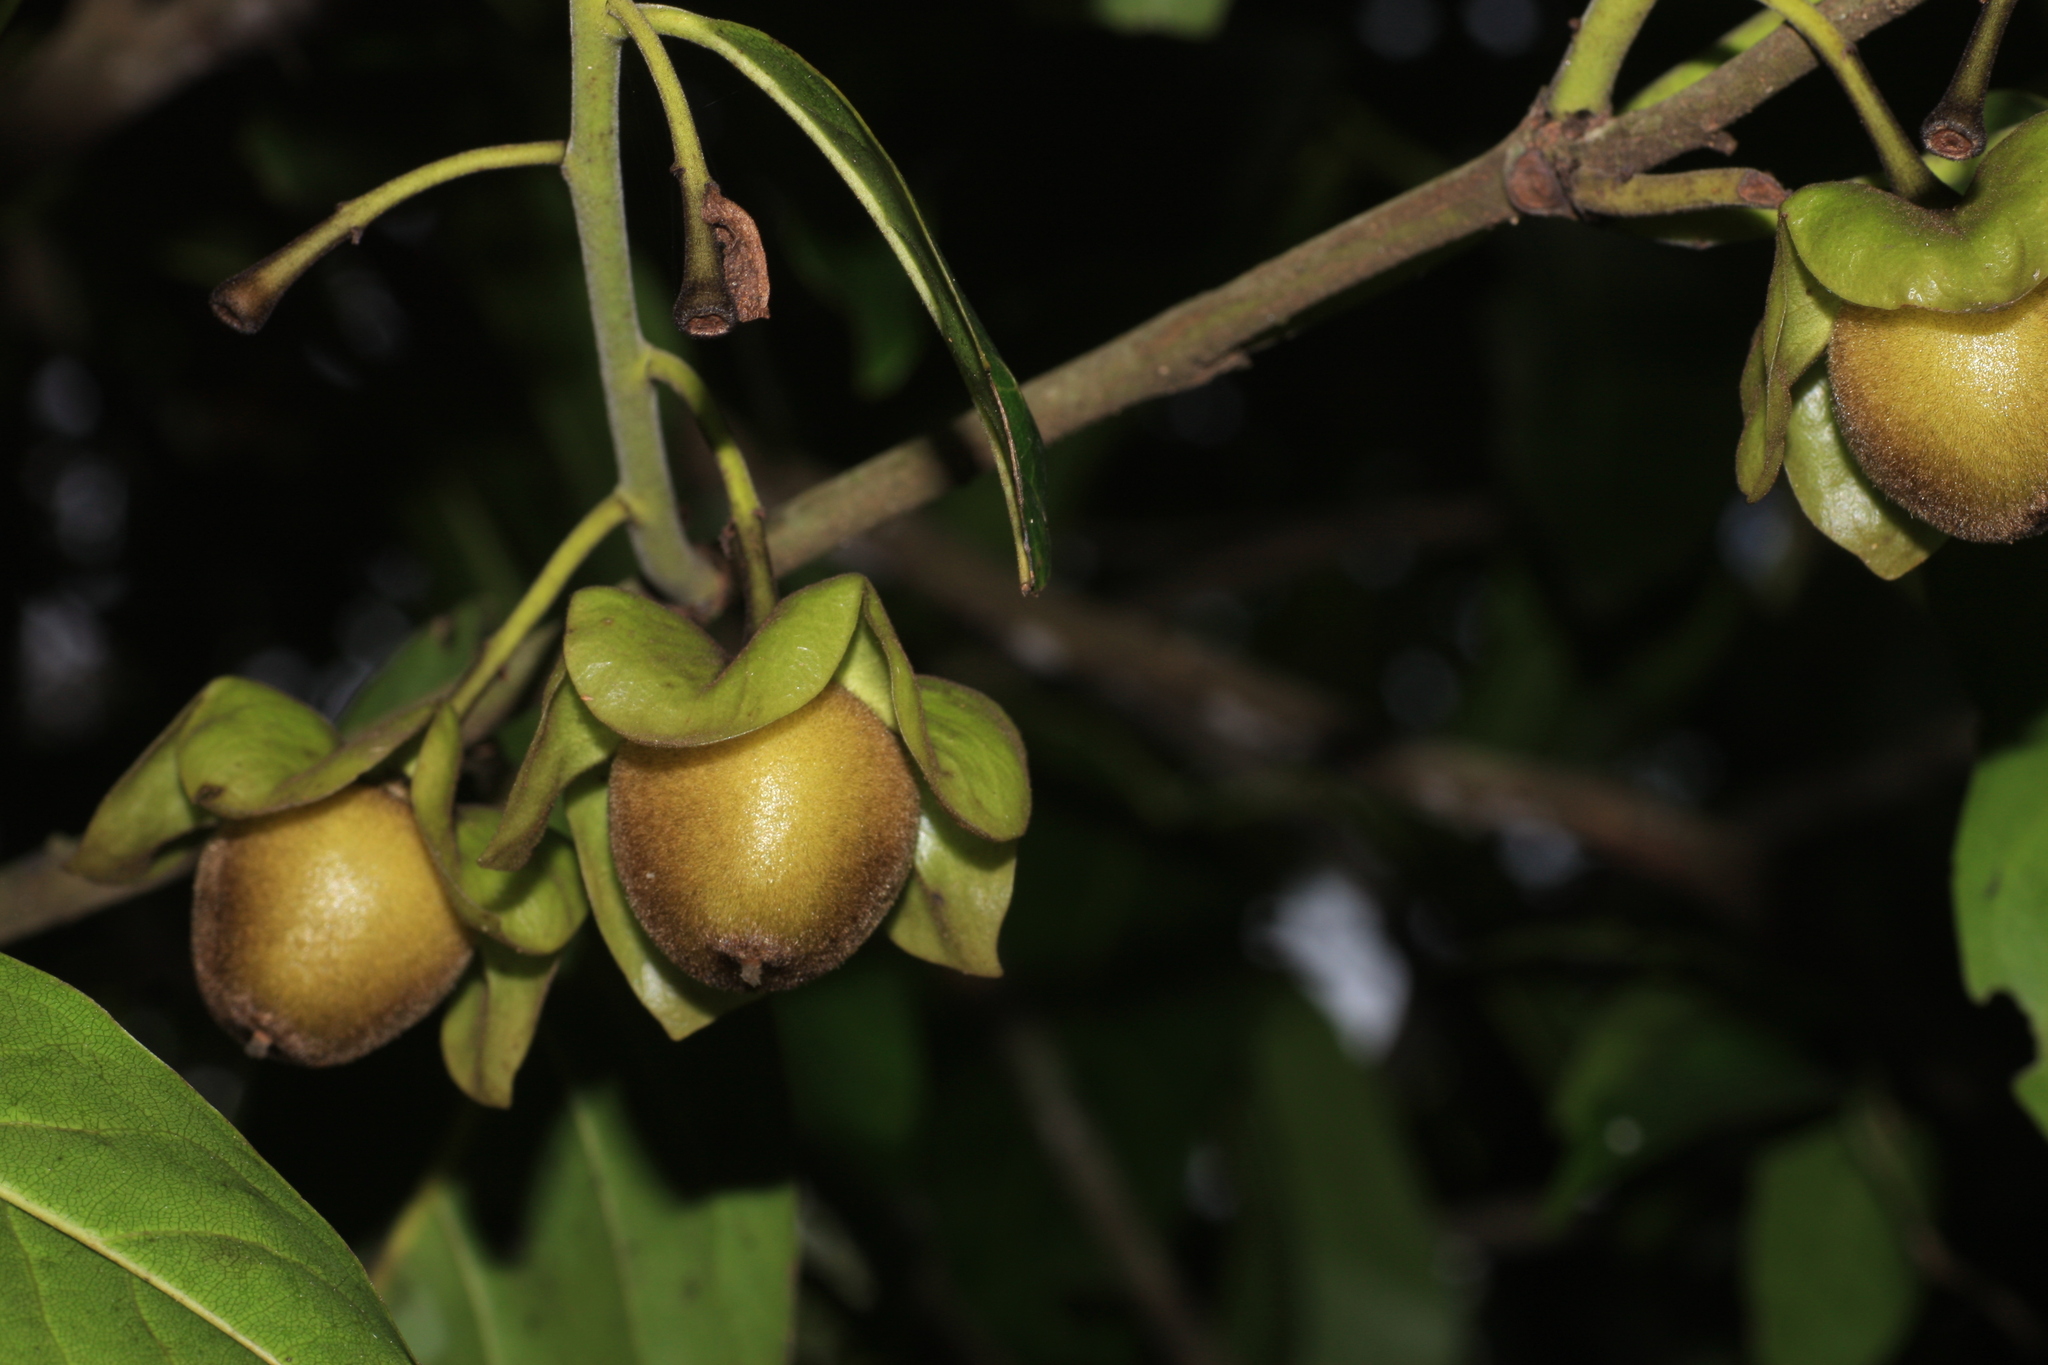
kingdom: Plantae
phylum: Tracheophyta
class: Magnoliopsida
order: Ericales
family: Ebenaceae
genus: Diospyros
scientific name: Diospyros paniculata
